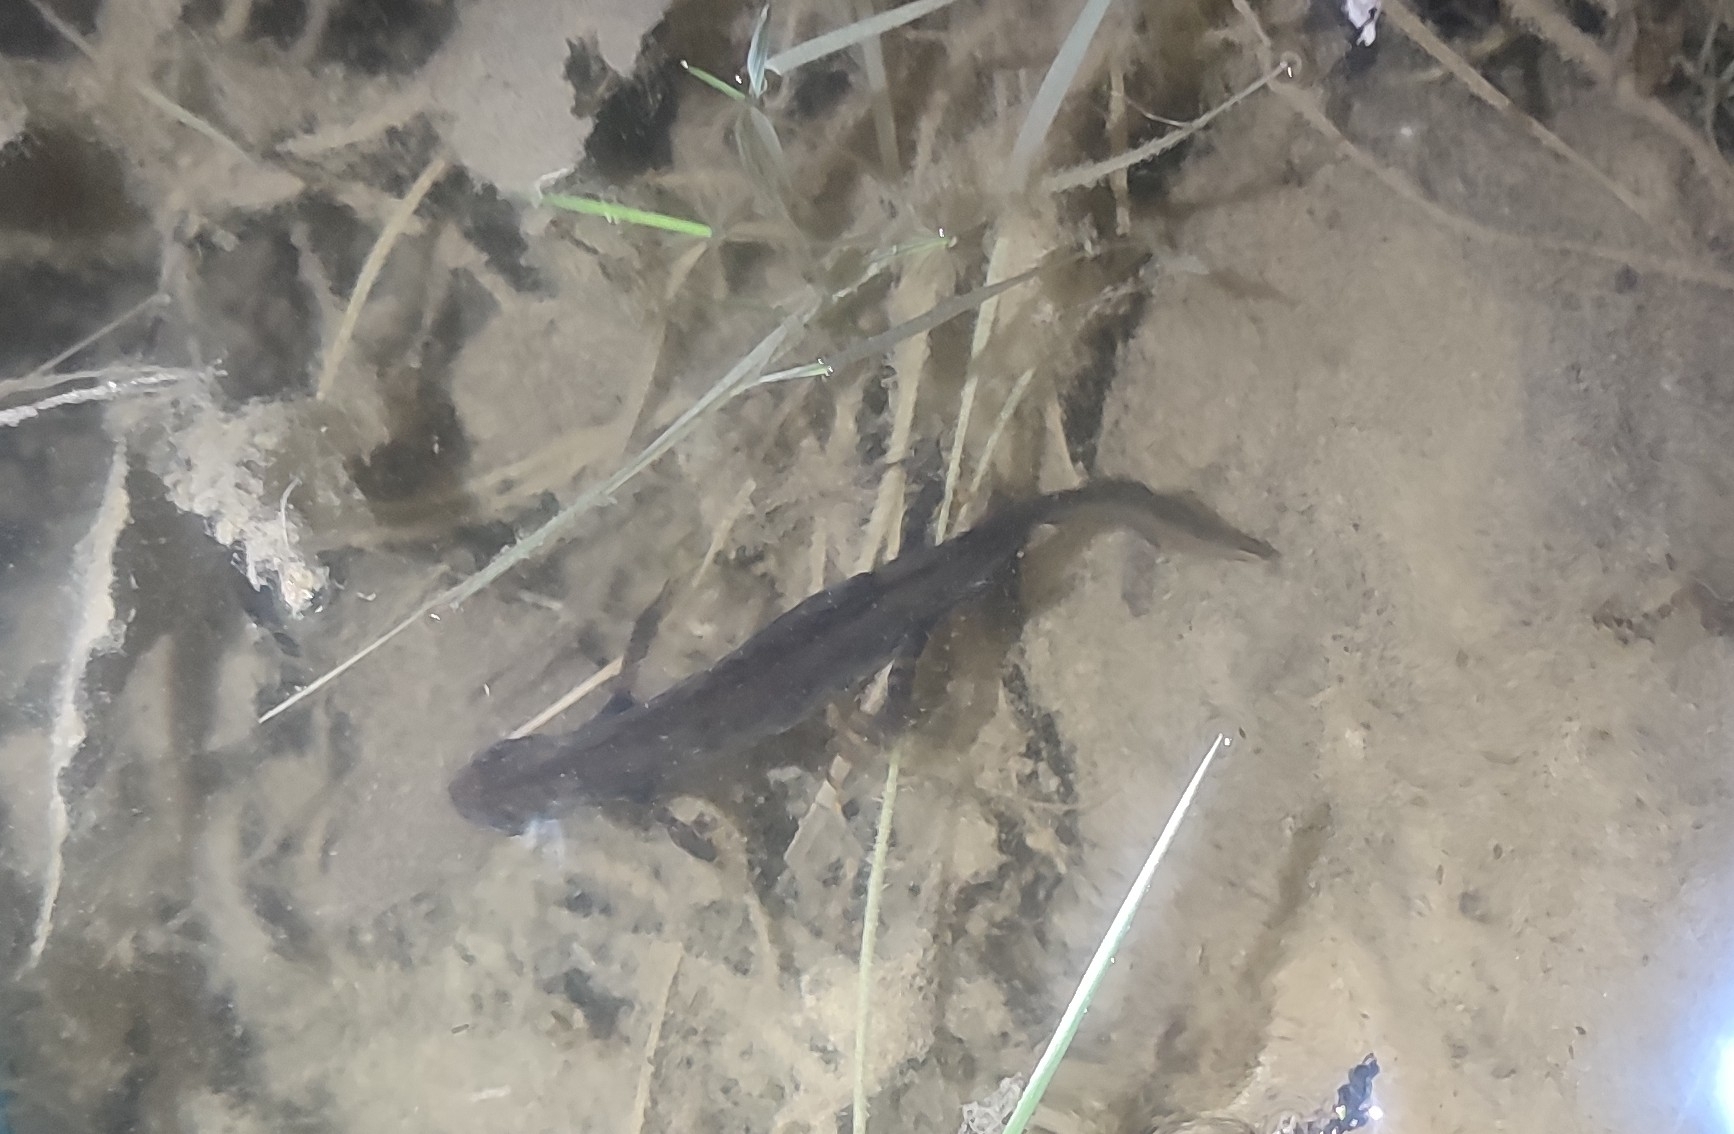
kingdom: Animalia
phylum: Chordata
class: Amphibia
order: Caudata
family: Salamandridae
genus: Triturus
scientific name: Triturus cristatus
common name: Crested newt
